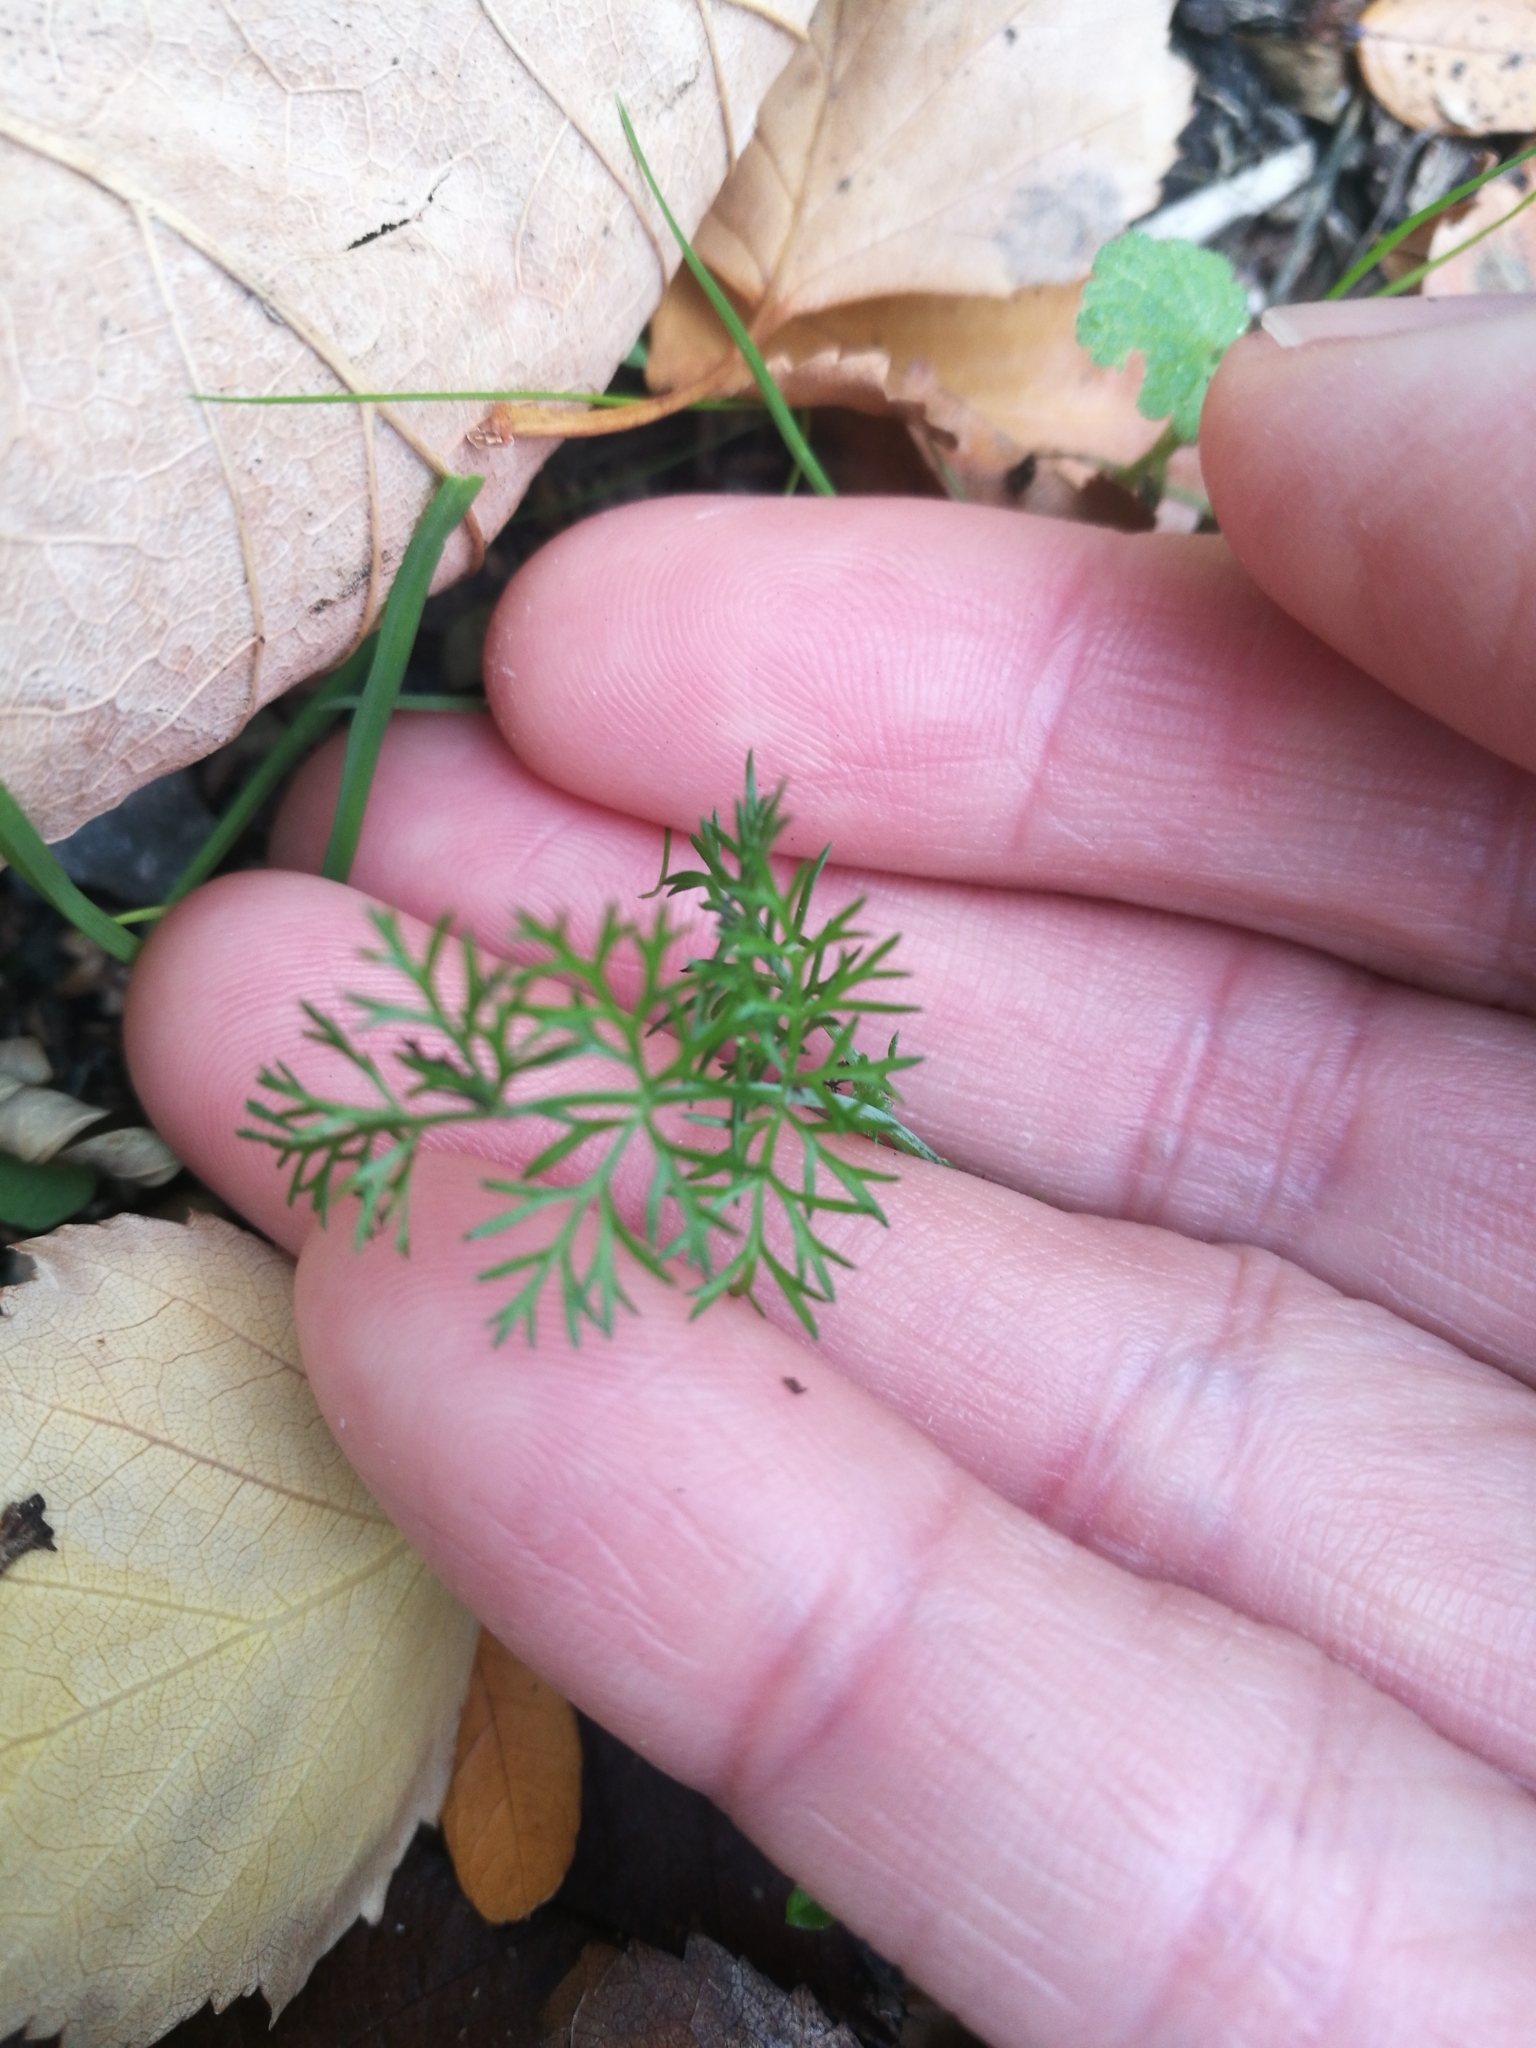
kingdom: Plantae
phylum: Tracheophyta
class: Magnoliopsida
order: Apiales
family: Apiaceae
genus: Foeniculum
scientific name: Foeniculum vulgare
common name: Fennel
